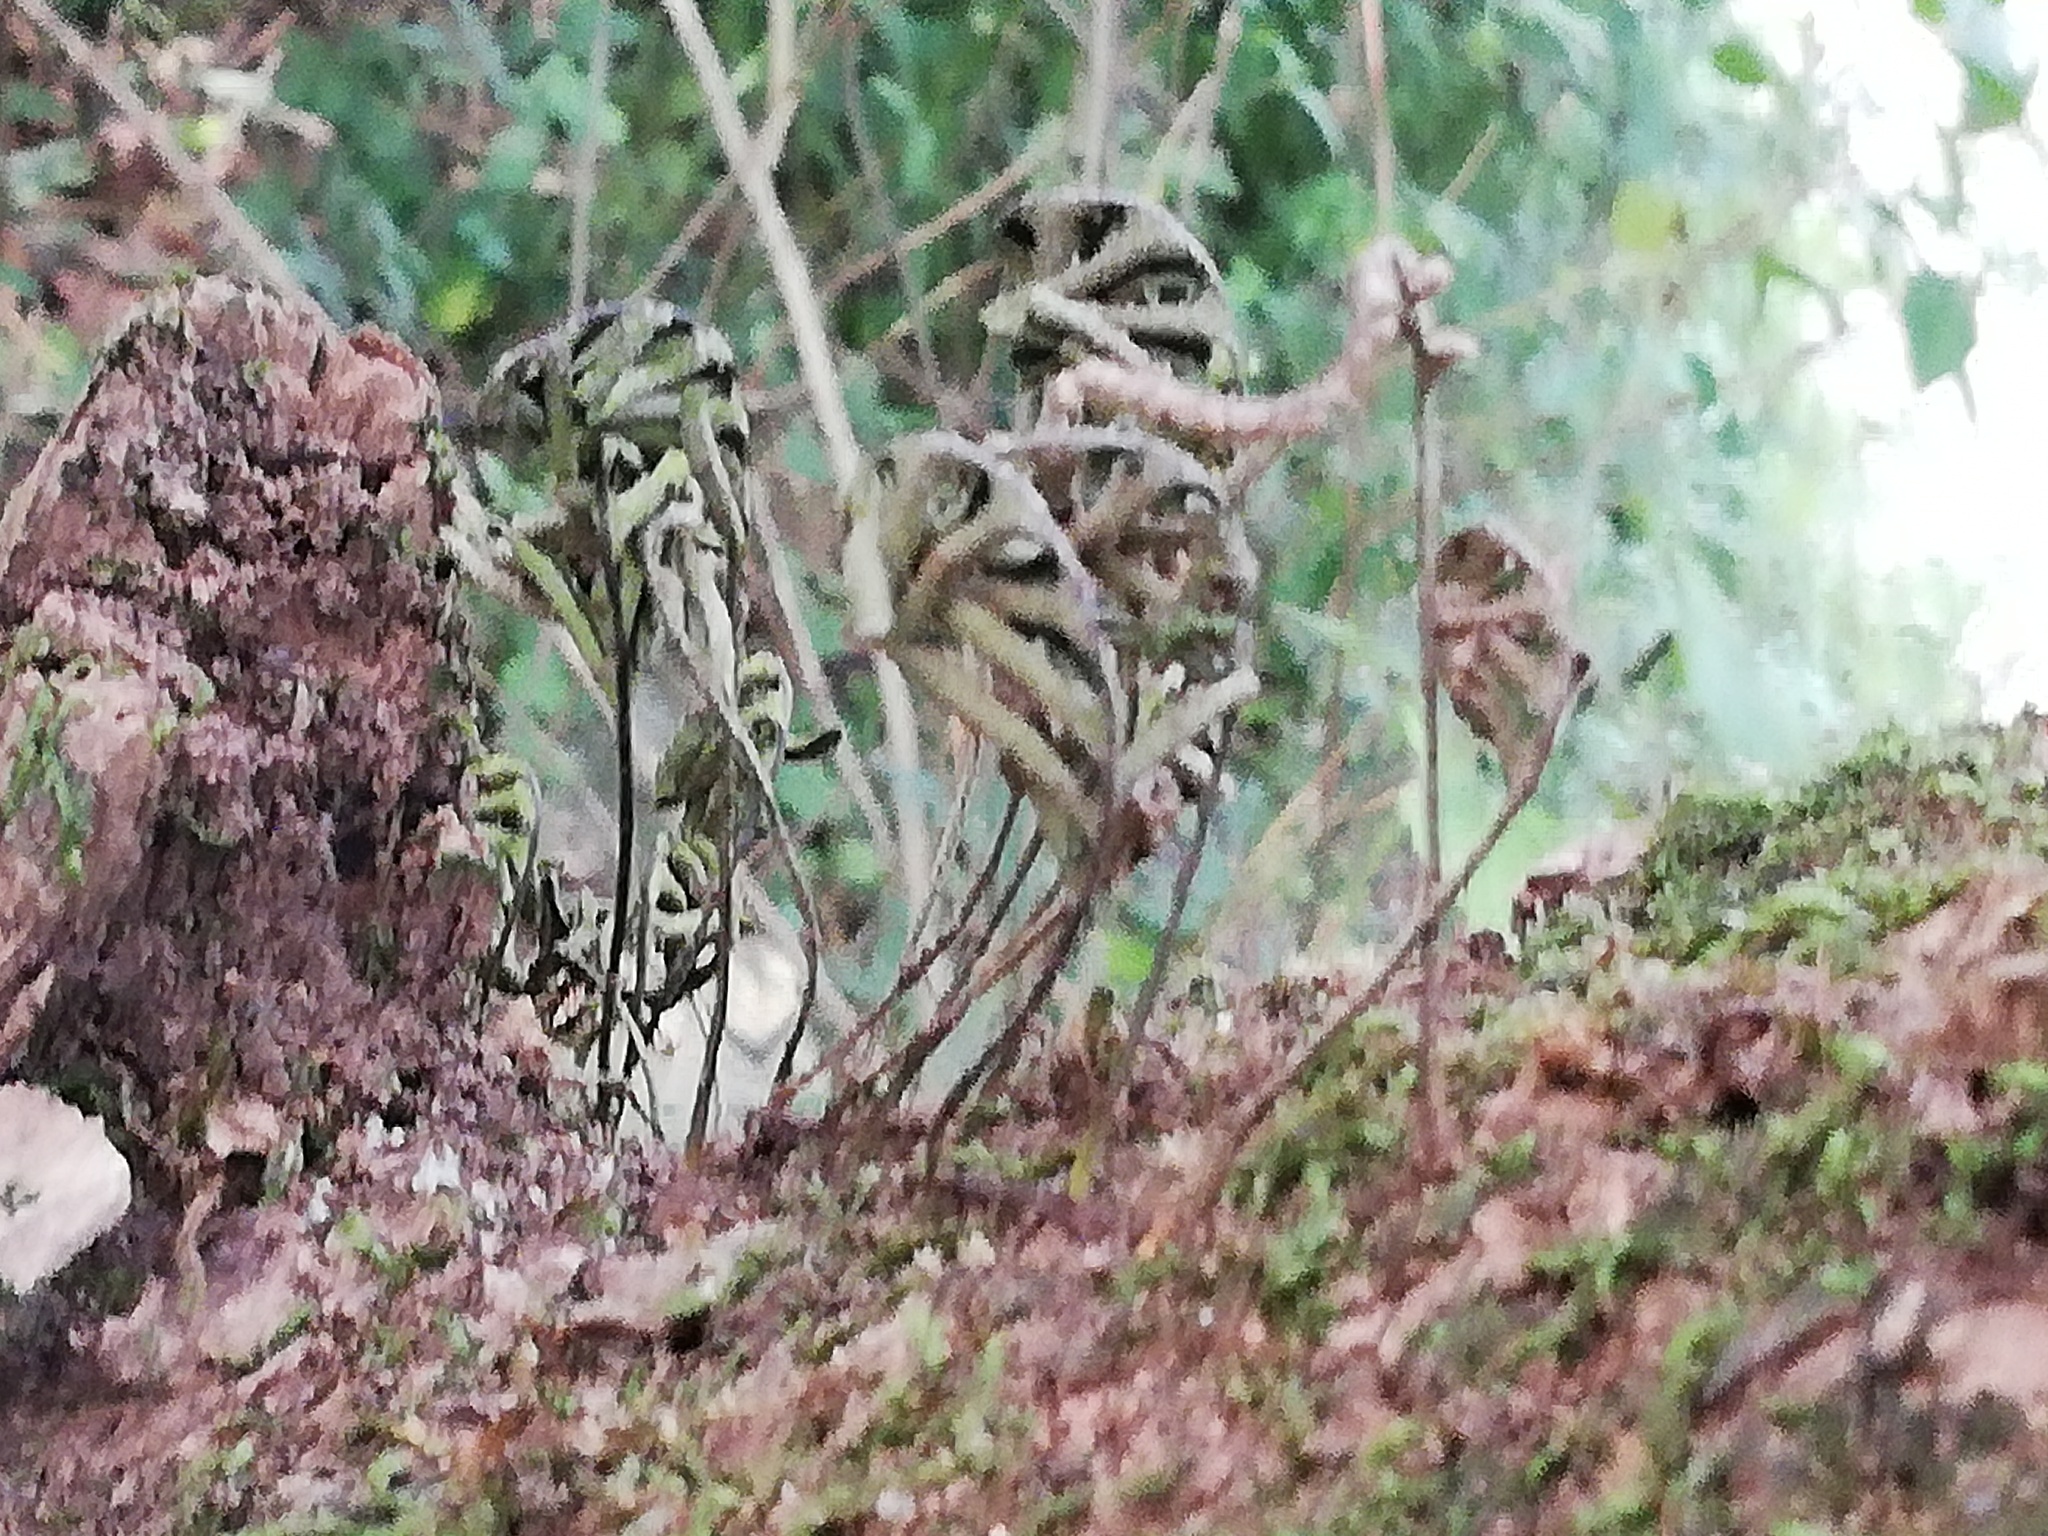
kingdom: Plantae
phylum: Tracheophyta
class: Polypodiopsida
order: Polypodiales
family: Polypodiaceae
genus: Pleopeltis
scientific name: Pleopeltis michauxiana
